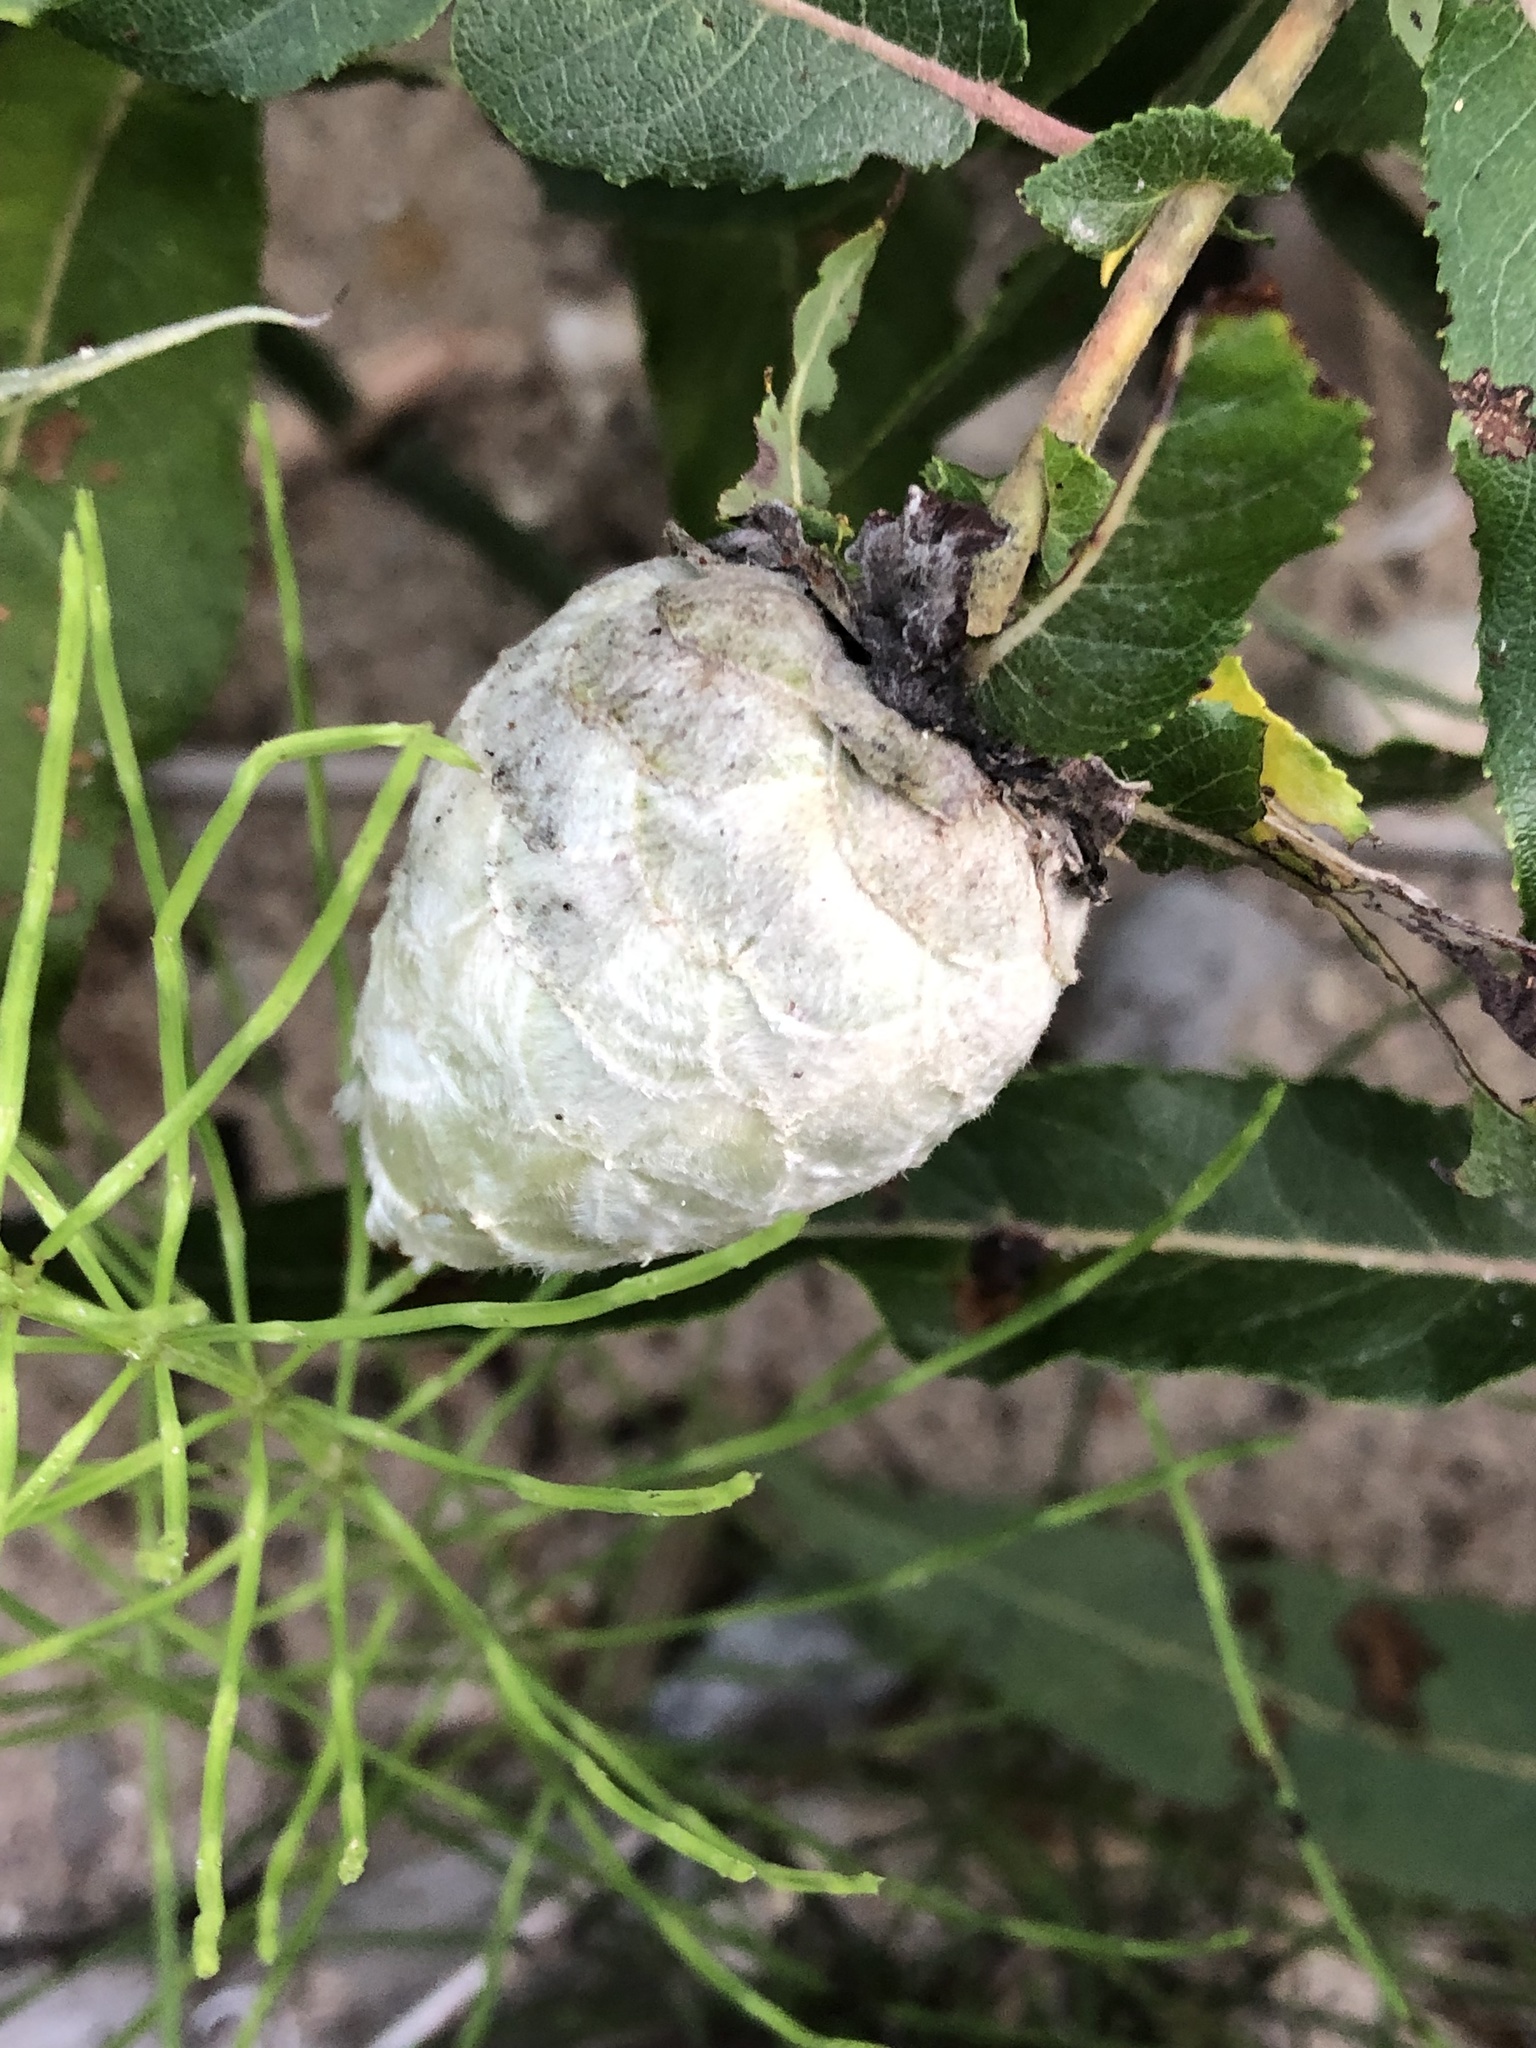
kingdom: Animalia
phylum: Arthropoda
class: Insecta
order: Diptera
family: Cecidomyiidae
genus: Rabdophaga
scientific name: Rabdophaga strobiloides
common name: Willow pinecone gall midge
